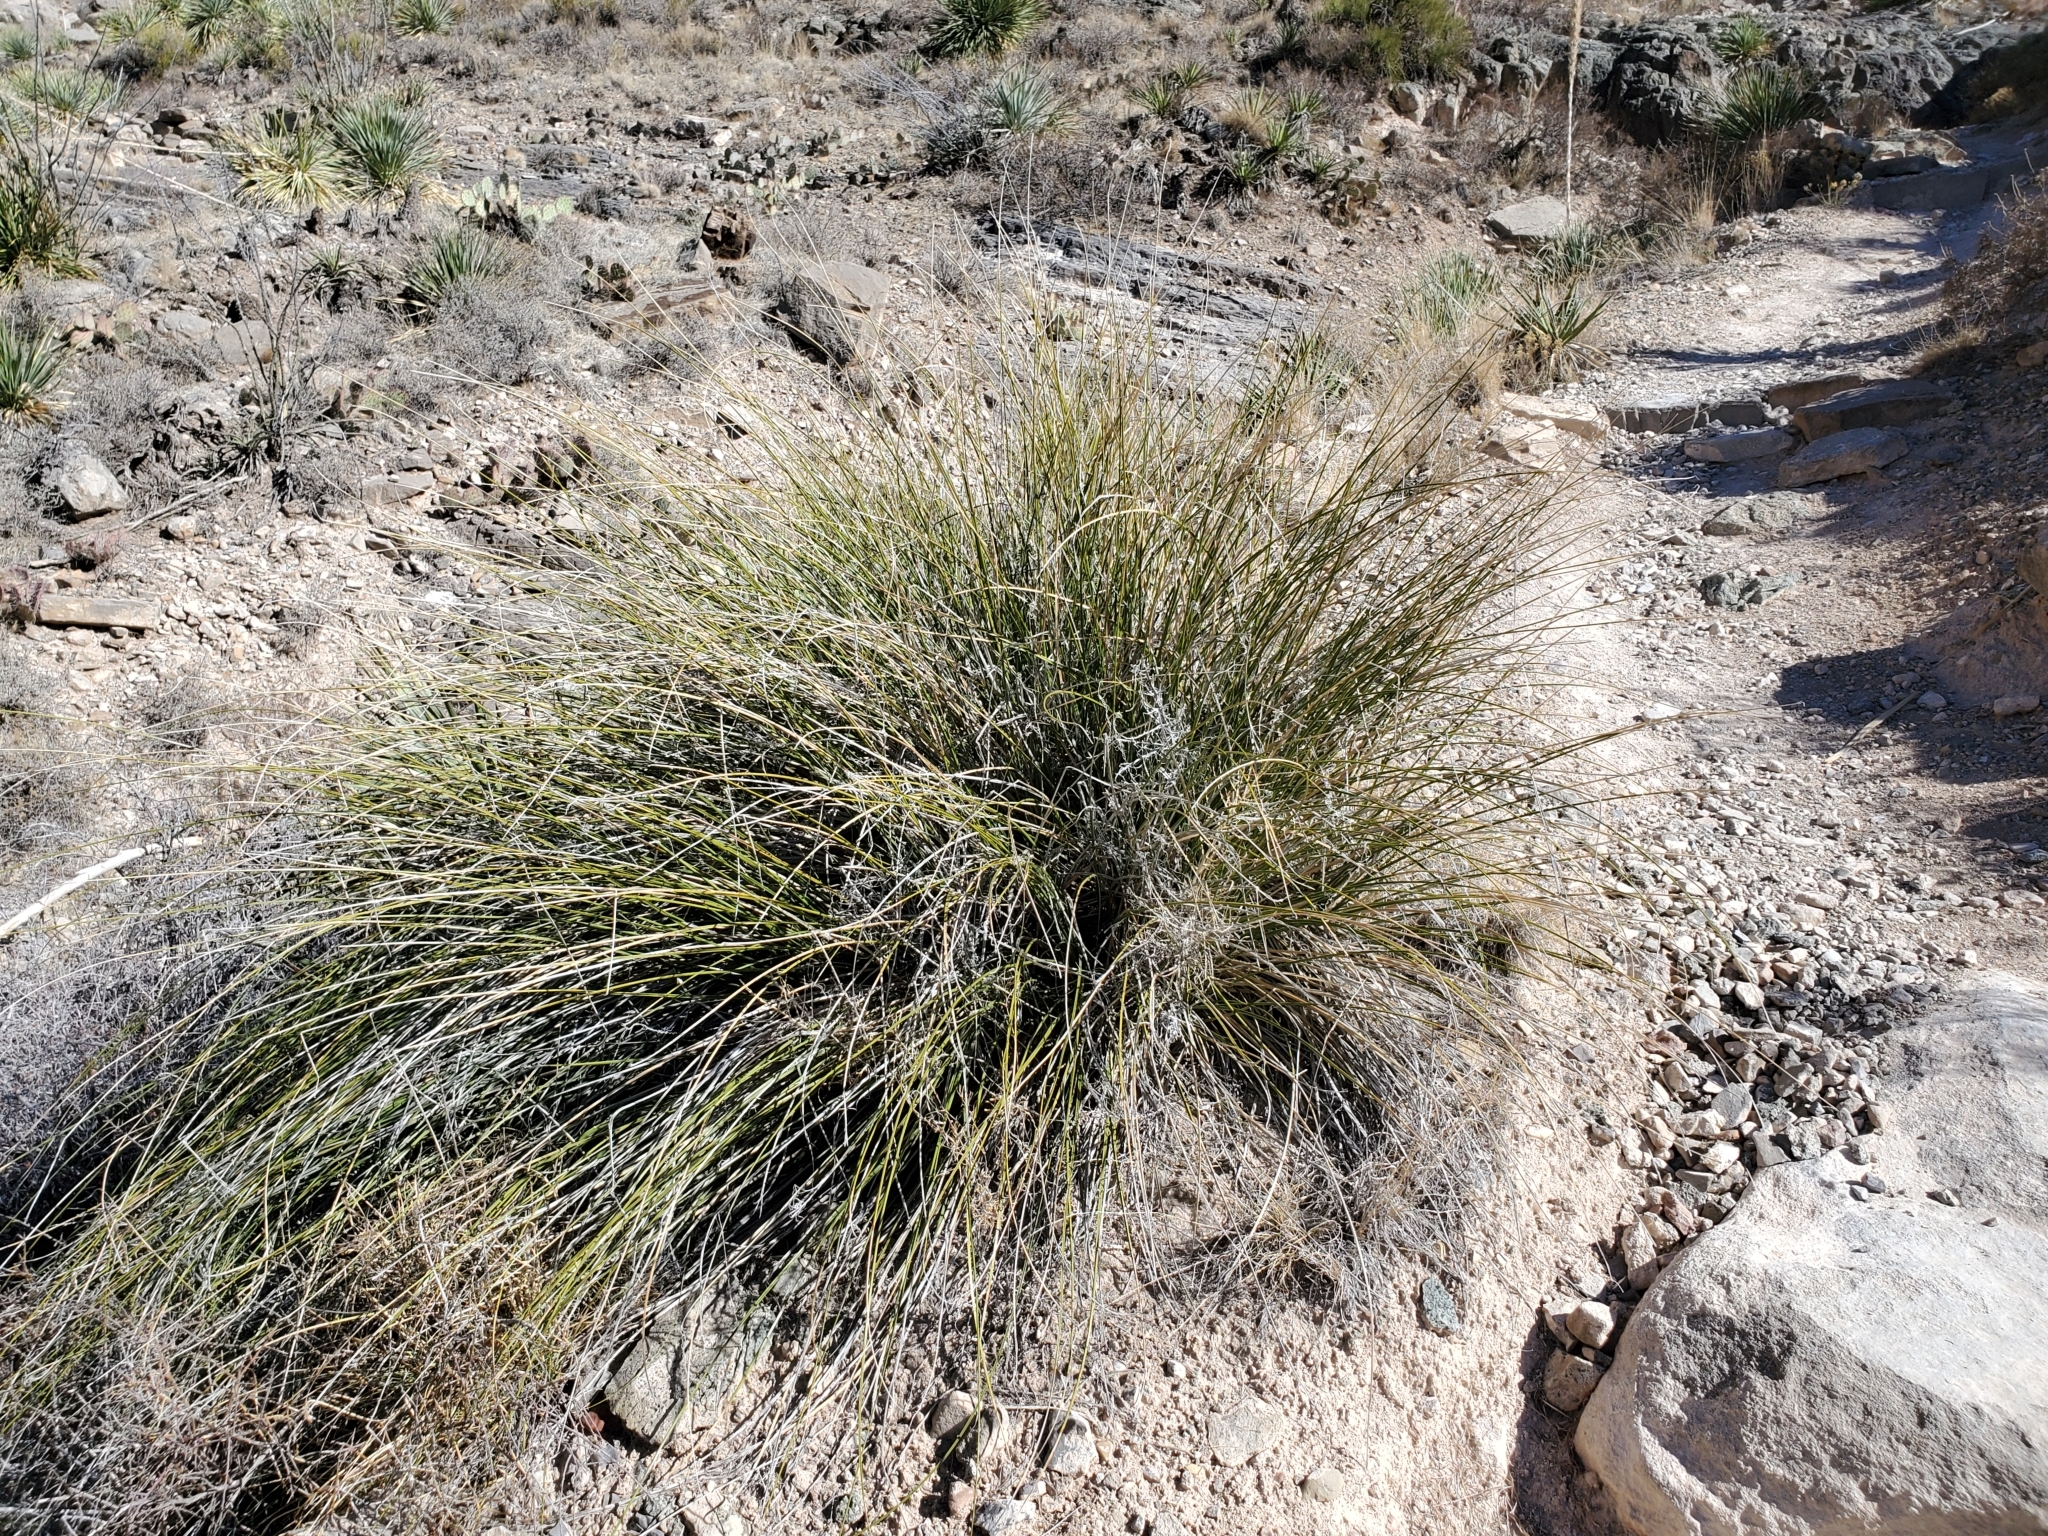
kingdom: Plantae
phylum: Tracheophyta
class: Liliopsida
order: Asparagales
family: Asparagaceae
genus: Nolina
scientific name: Nolina texana
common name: Texas sacahuiste
